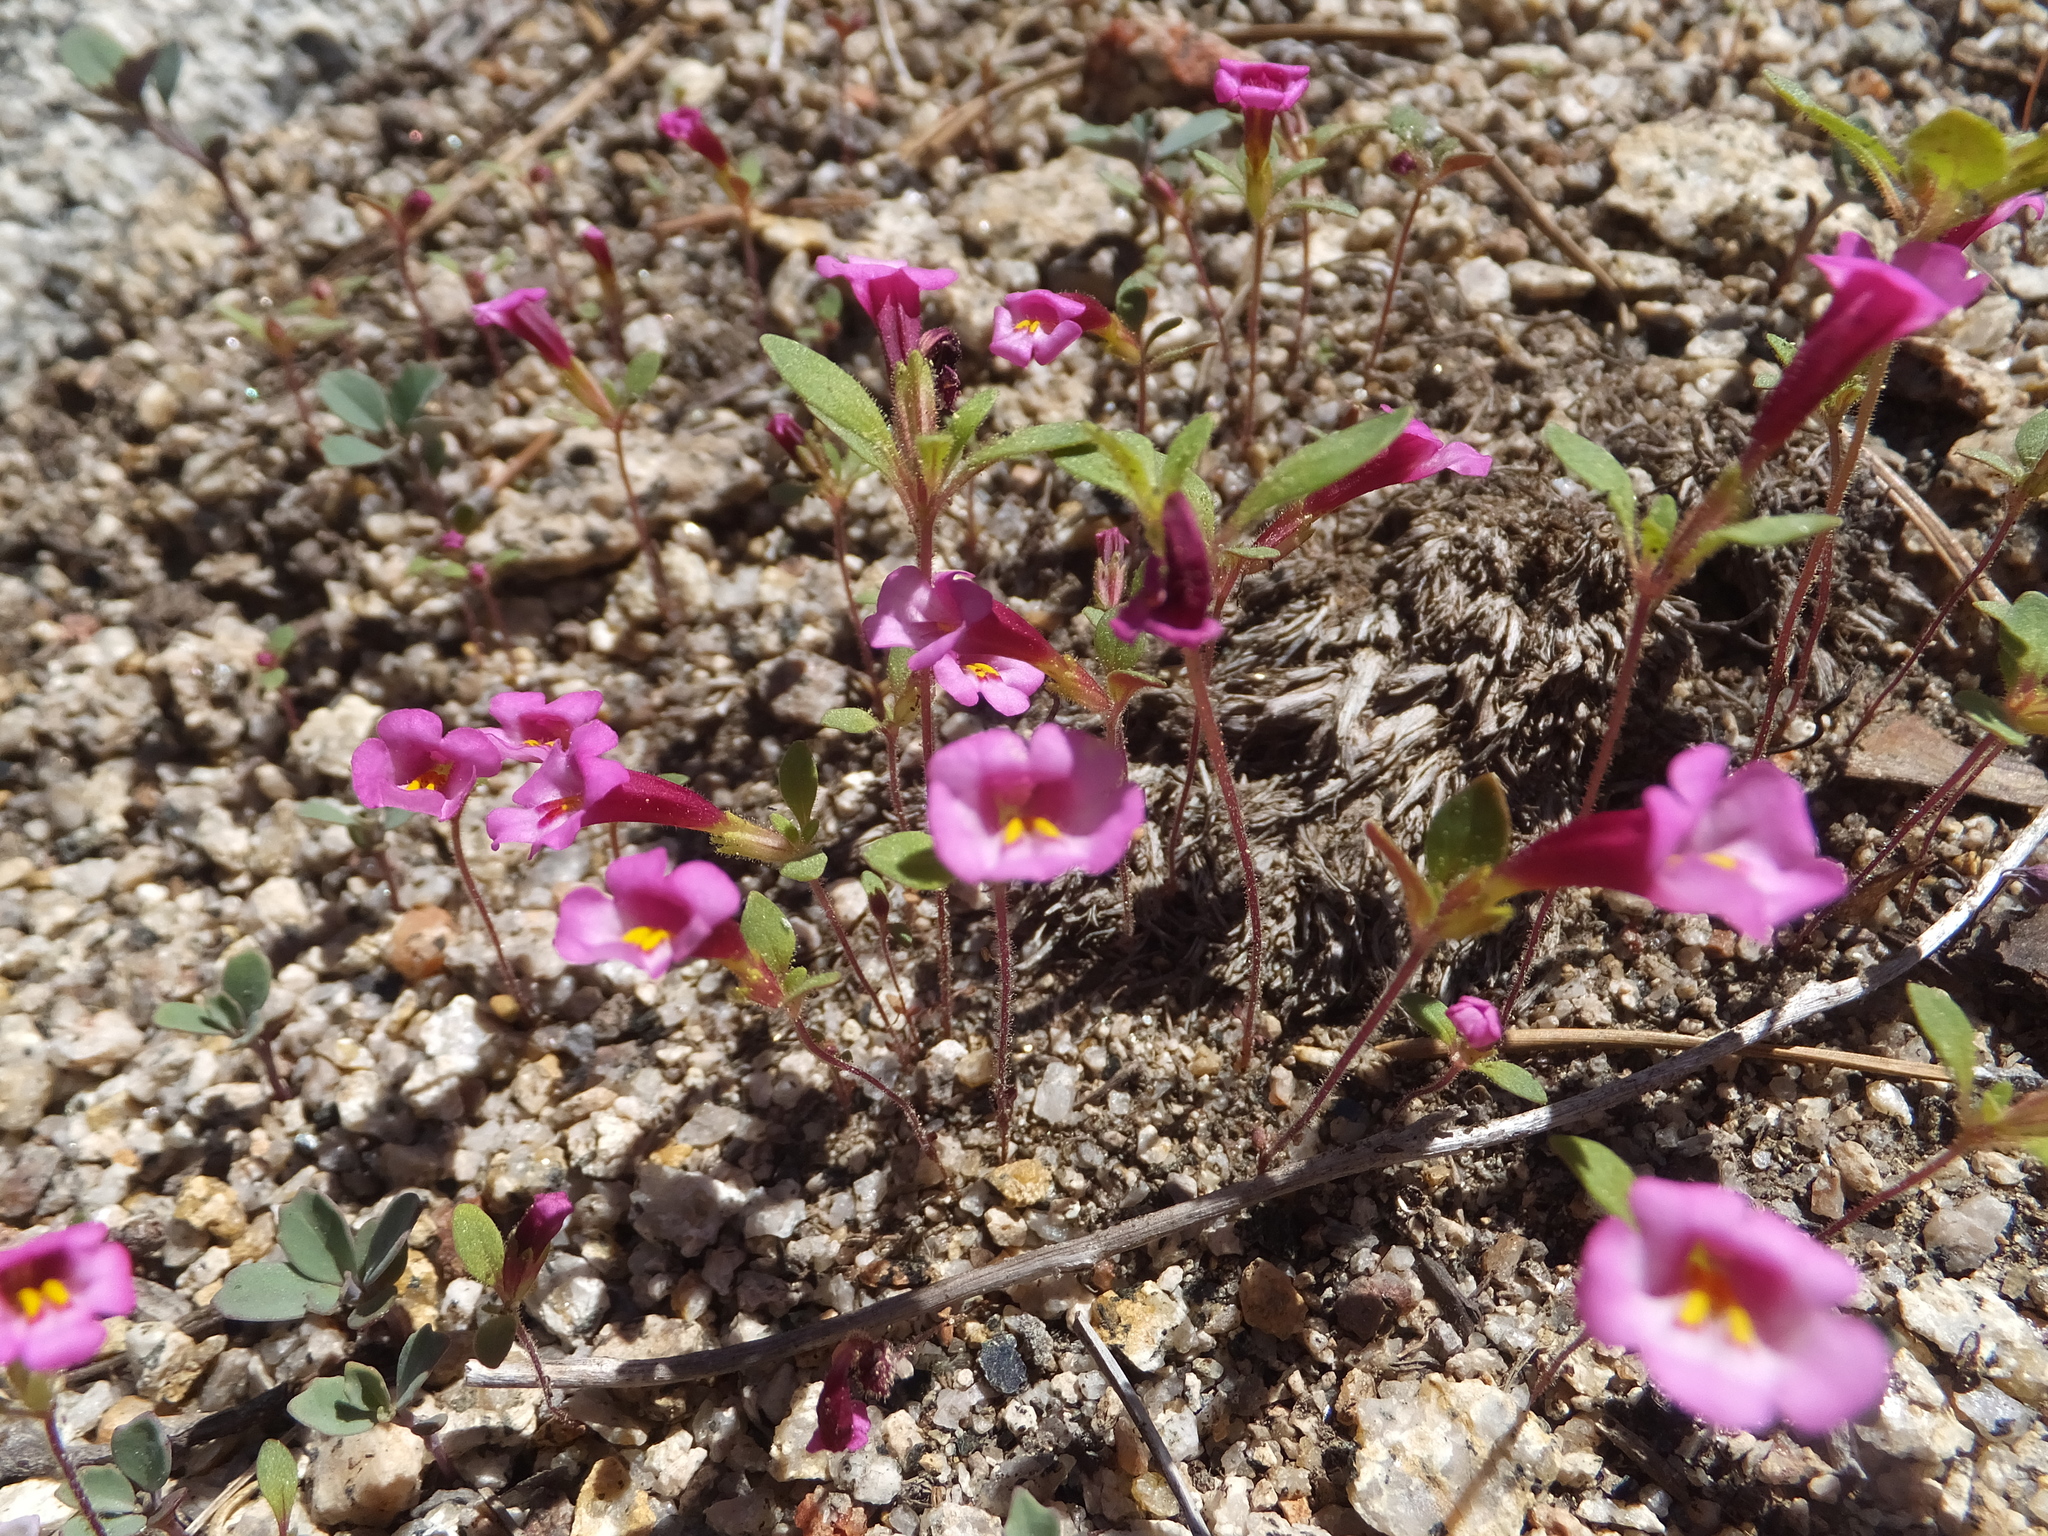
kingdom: Plantae
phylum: Tracheophyta
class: Magnoliopsida
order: Lamiales
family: Phrymaceae
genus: Diplacus
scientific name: Diplacus torreyi
